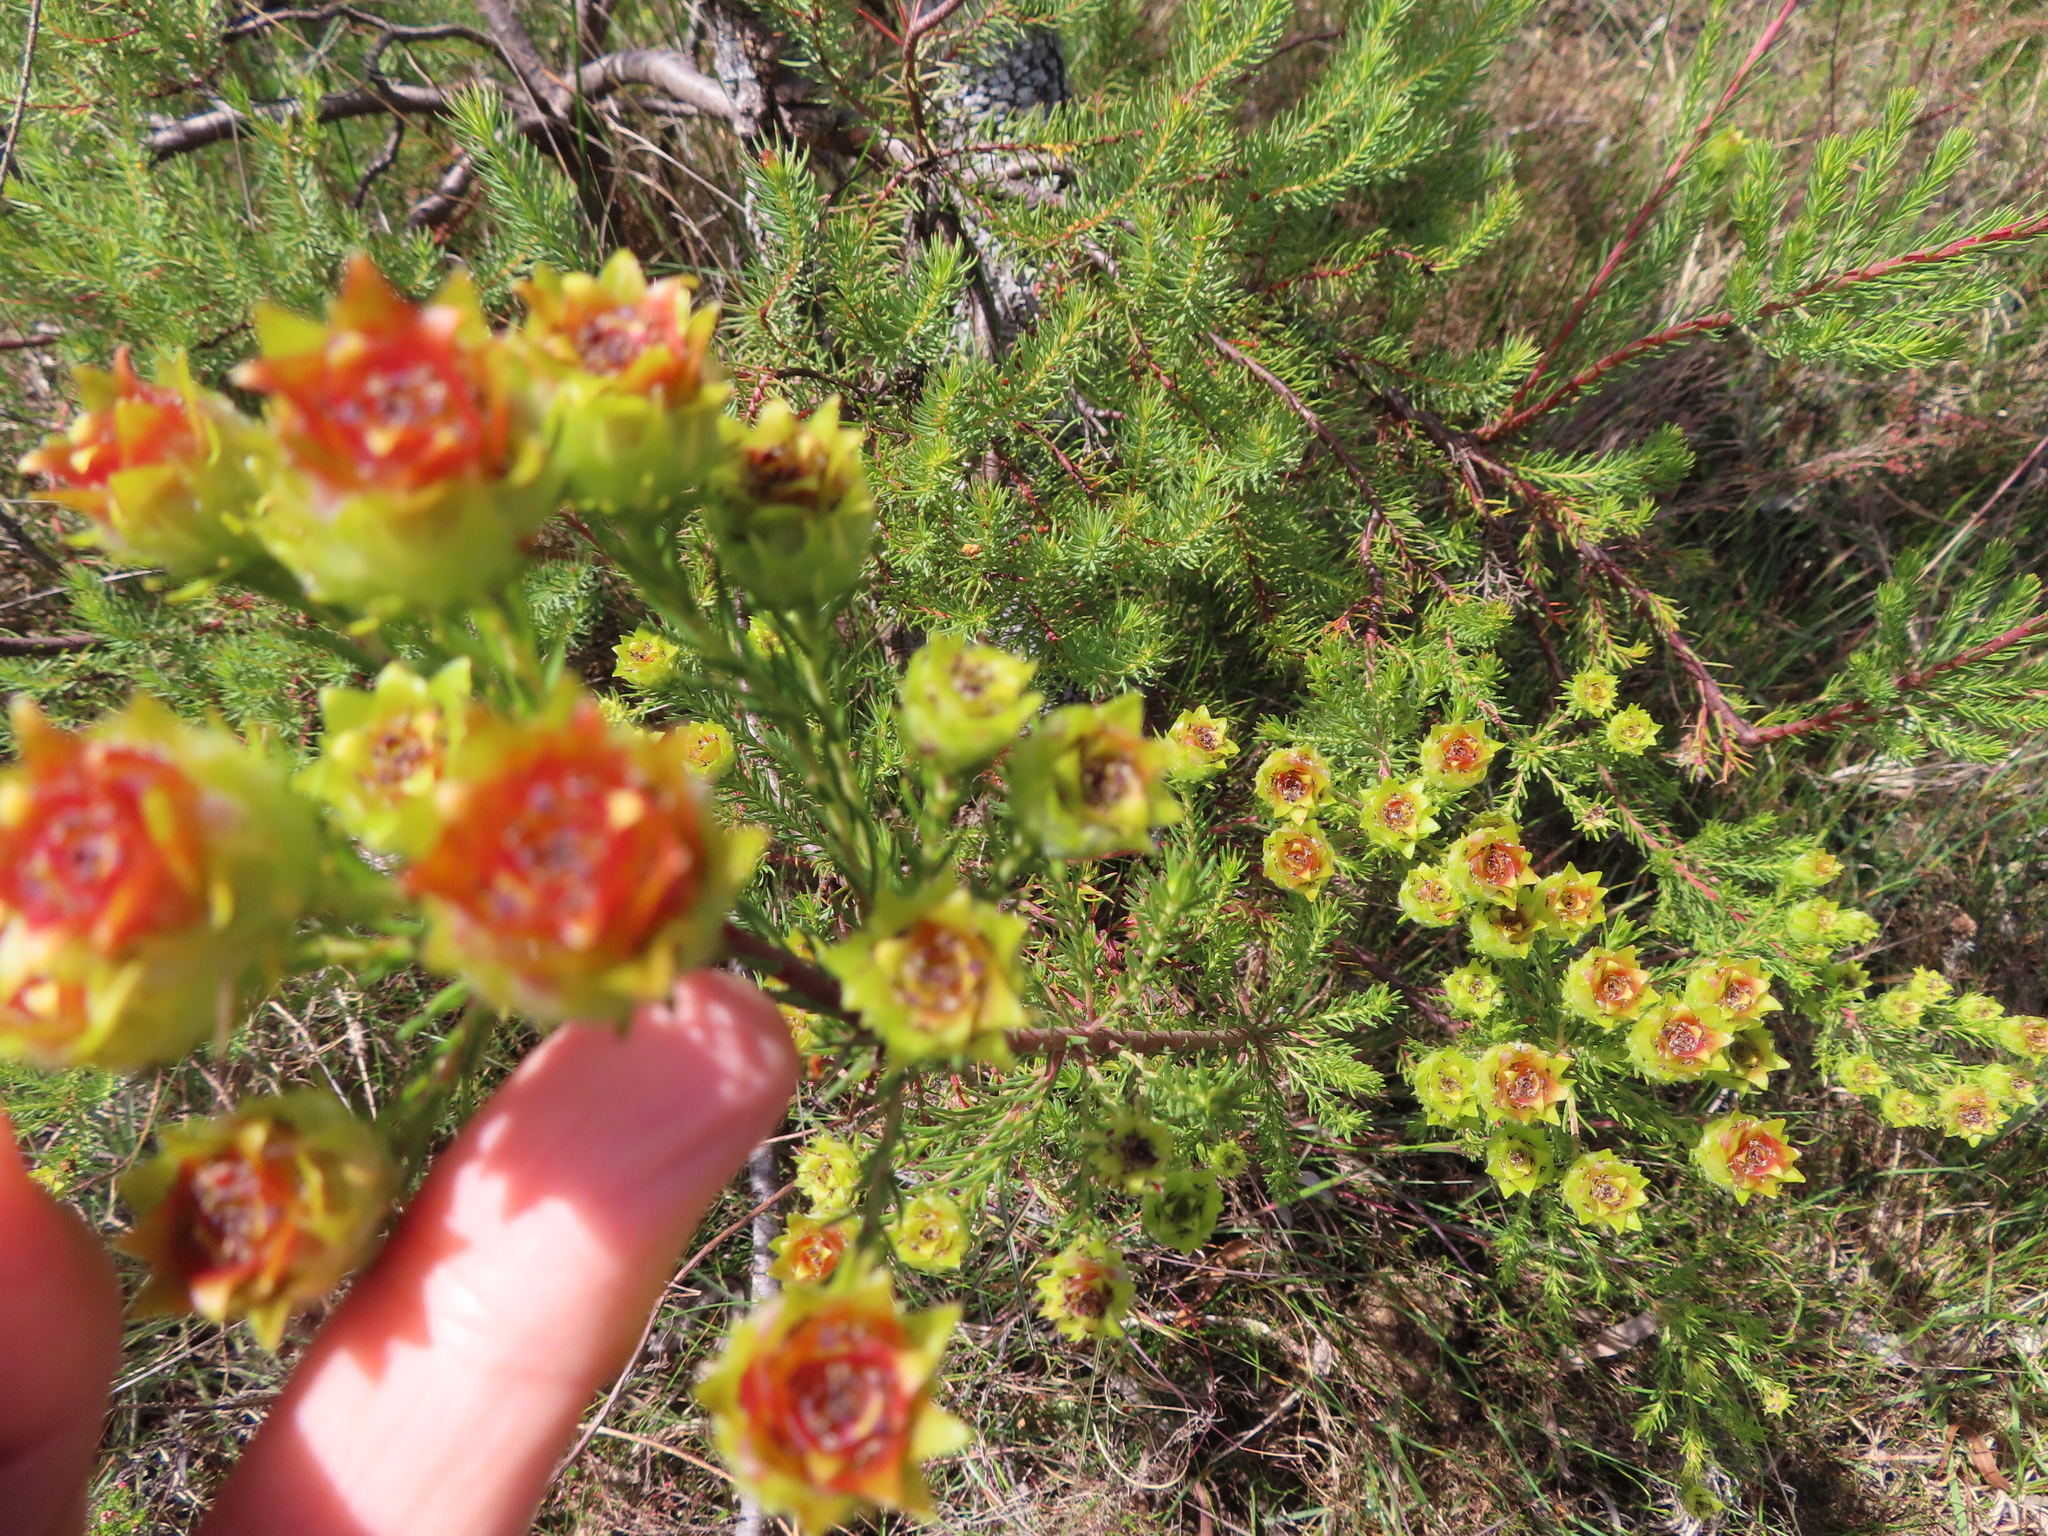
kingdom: Plantae
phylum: Tracheophyta
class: Magnoliopsida
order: Proteales
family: Proteaceae
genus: Leucadendron
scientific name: Leucadendron laxum
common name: Bredasdorp conebush
